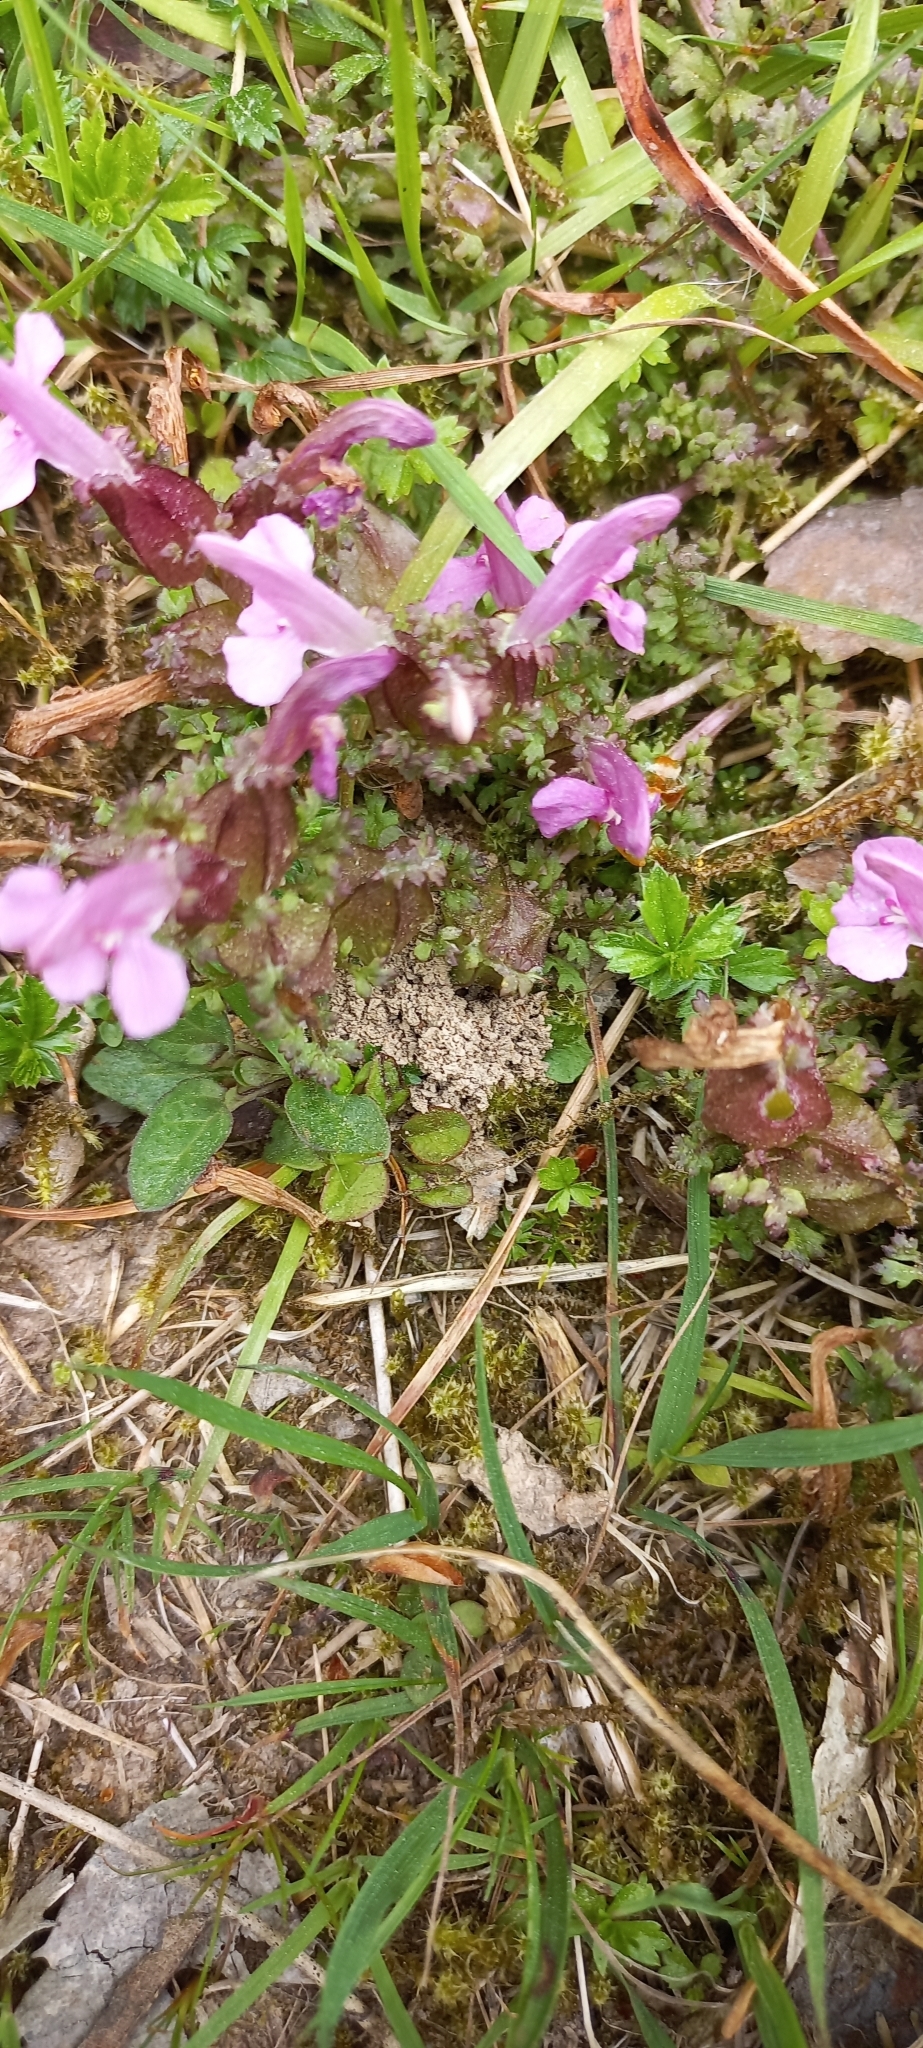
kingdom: Plantae
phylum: Tracheophyta
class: Magnoliopsida
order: Lamiales
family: Orobanchaceae
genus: Pedicularis
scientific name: Pedicularis sylvatica
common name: Lousewort
